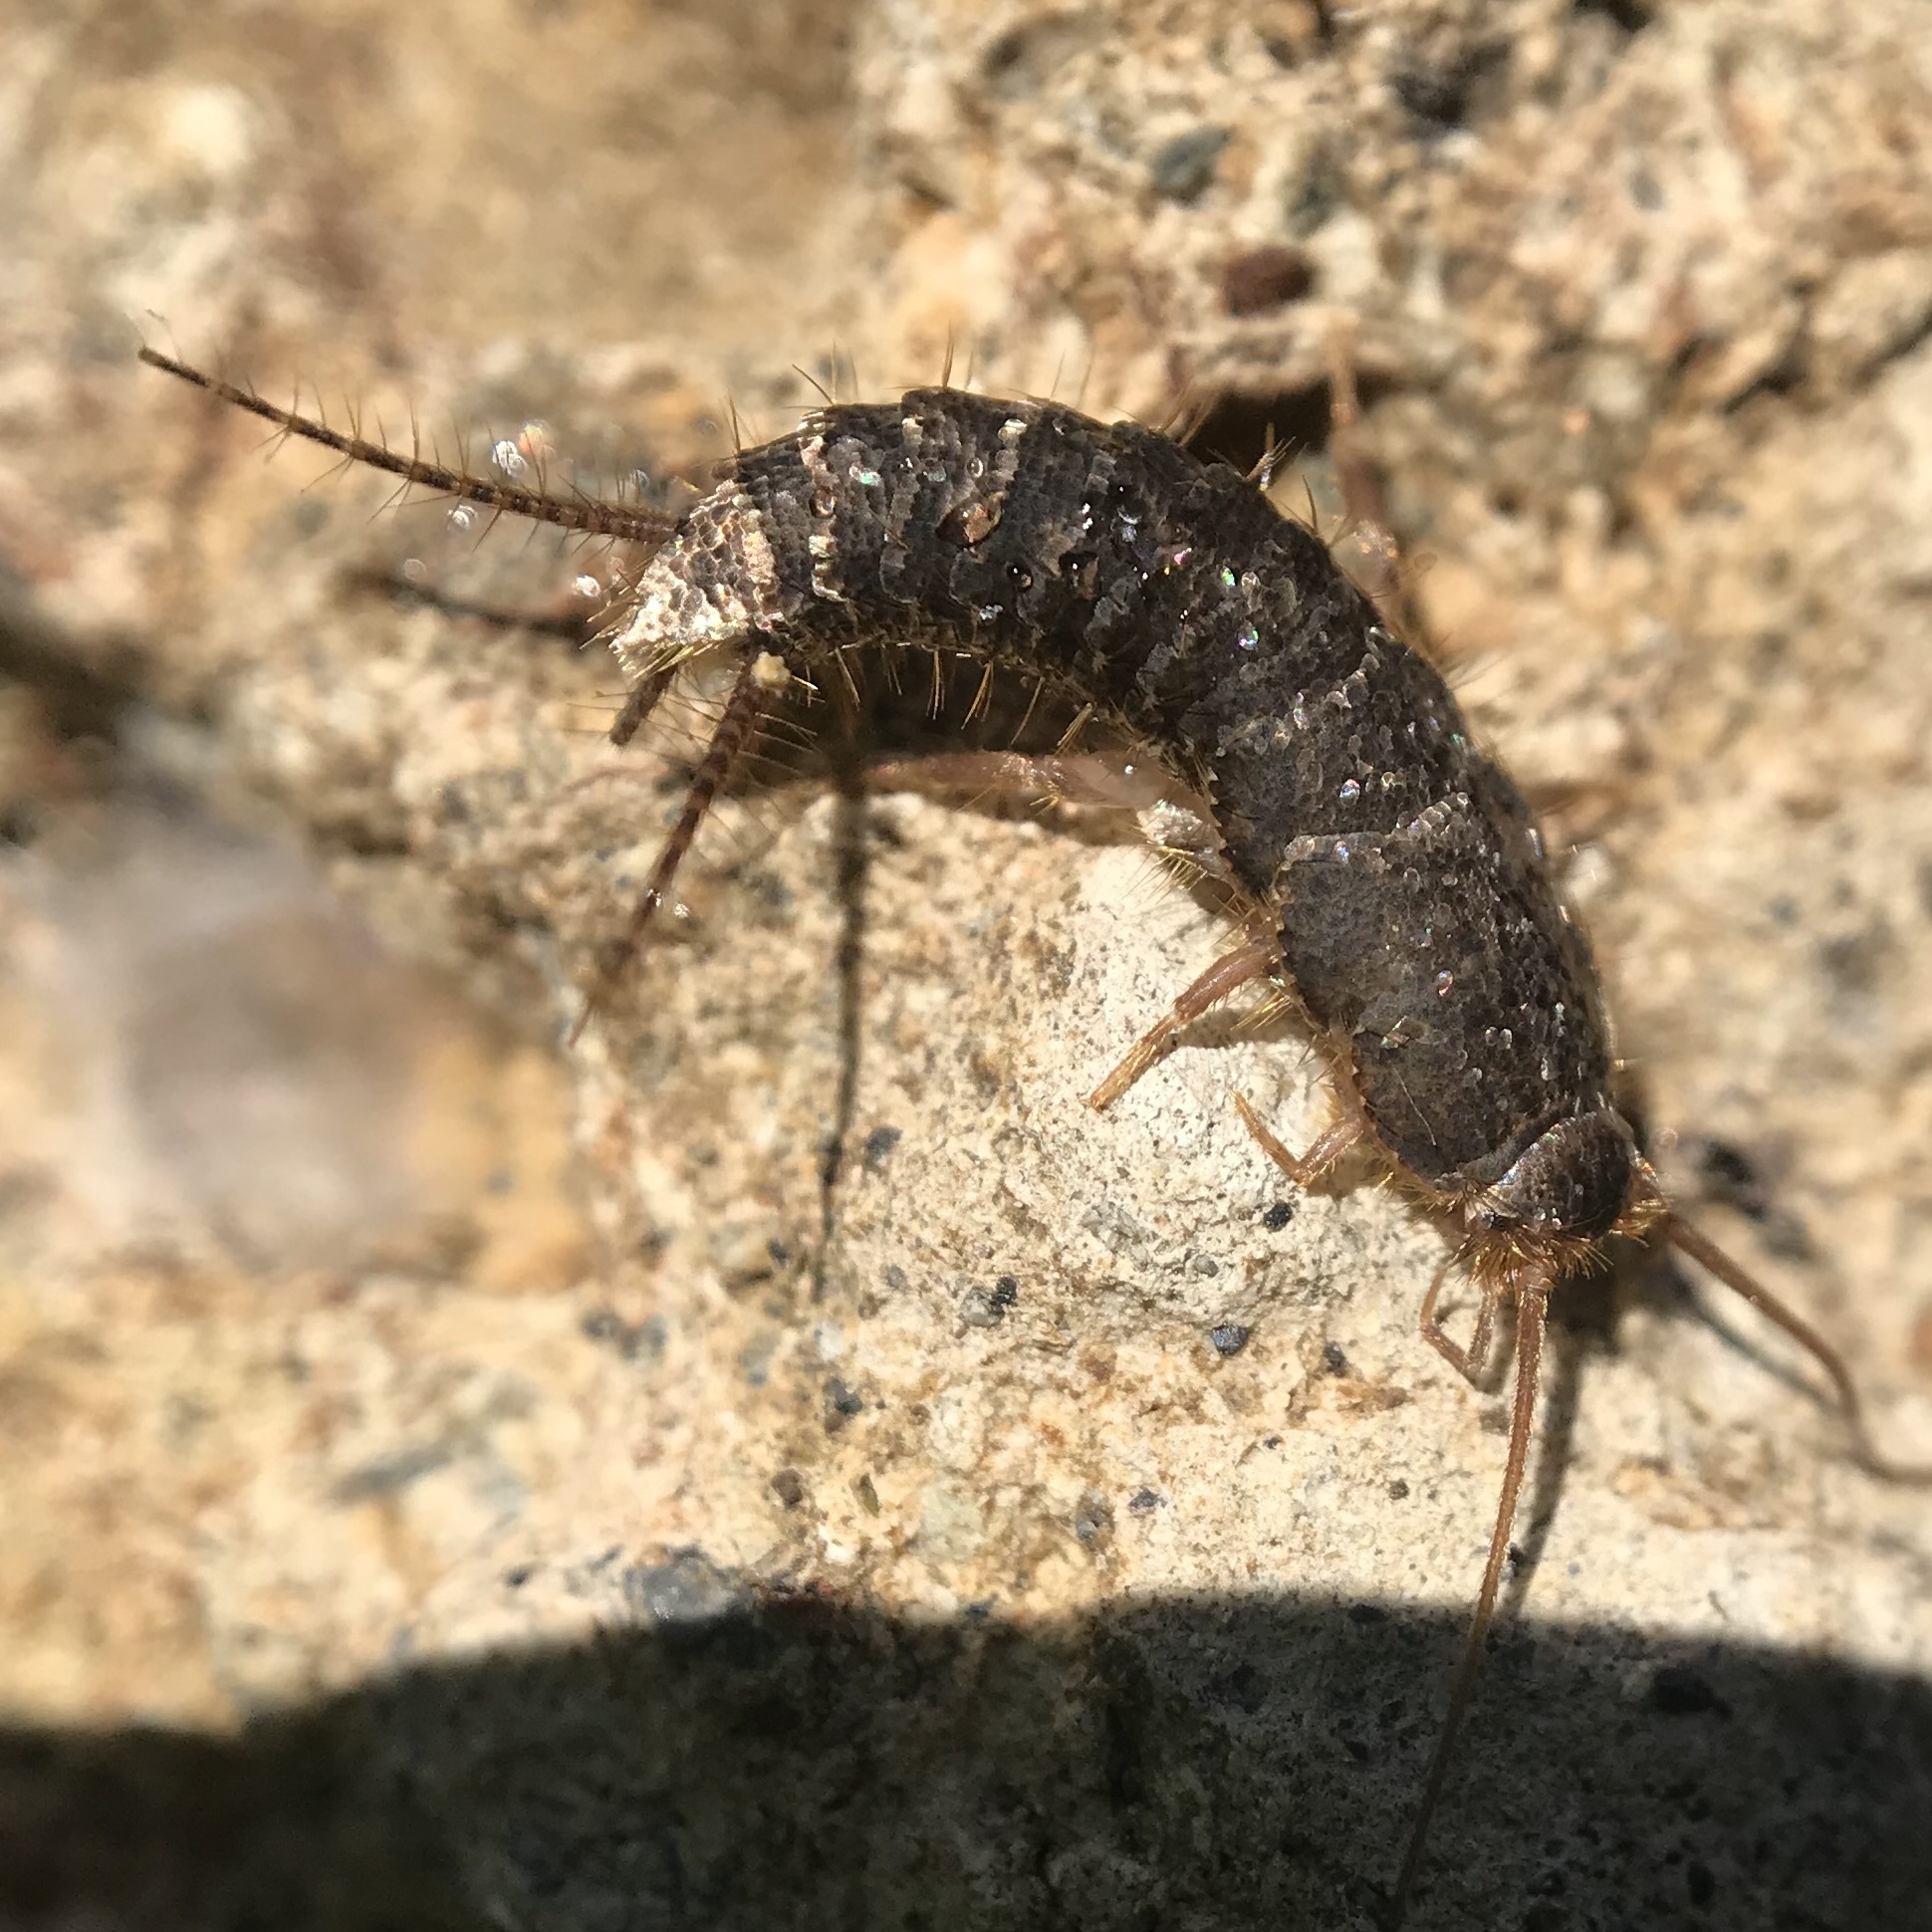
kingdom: Animalia
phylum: Arthropoda
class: Insecta
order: Zygentoma
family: Lepismatidae
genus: Allacrotelsa
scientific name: Allacrotelsa spinulata
